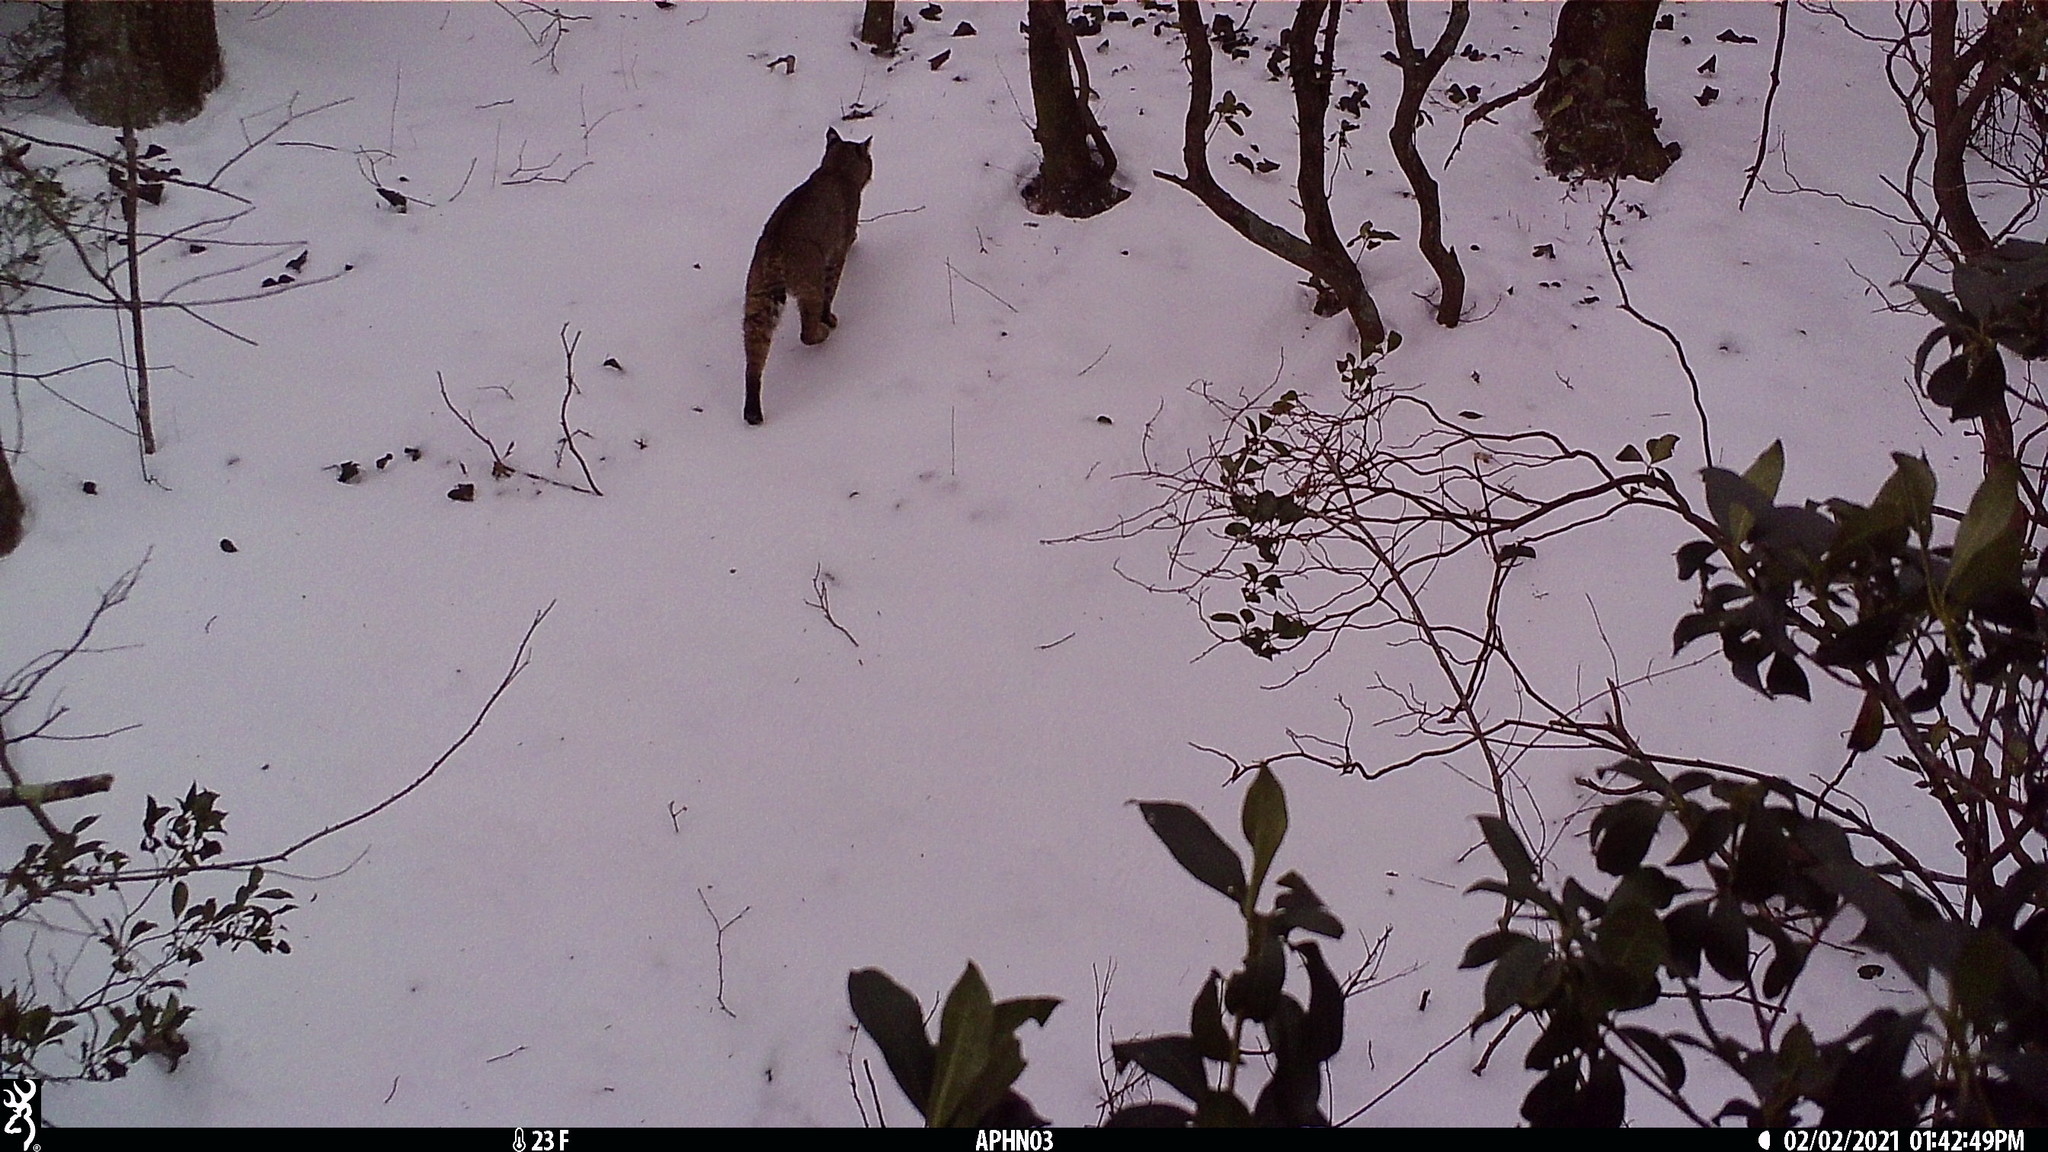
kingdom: Animalia
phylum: Chordata
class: Mammalia
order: Carnivora
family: Felidae
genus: Lynx
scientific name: Lynx rufus
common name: Bobcat
